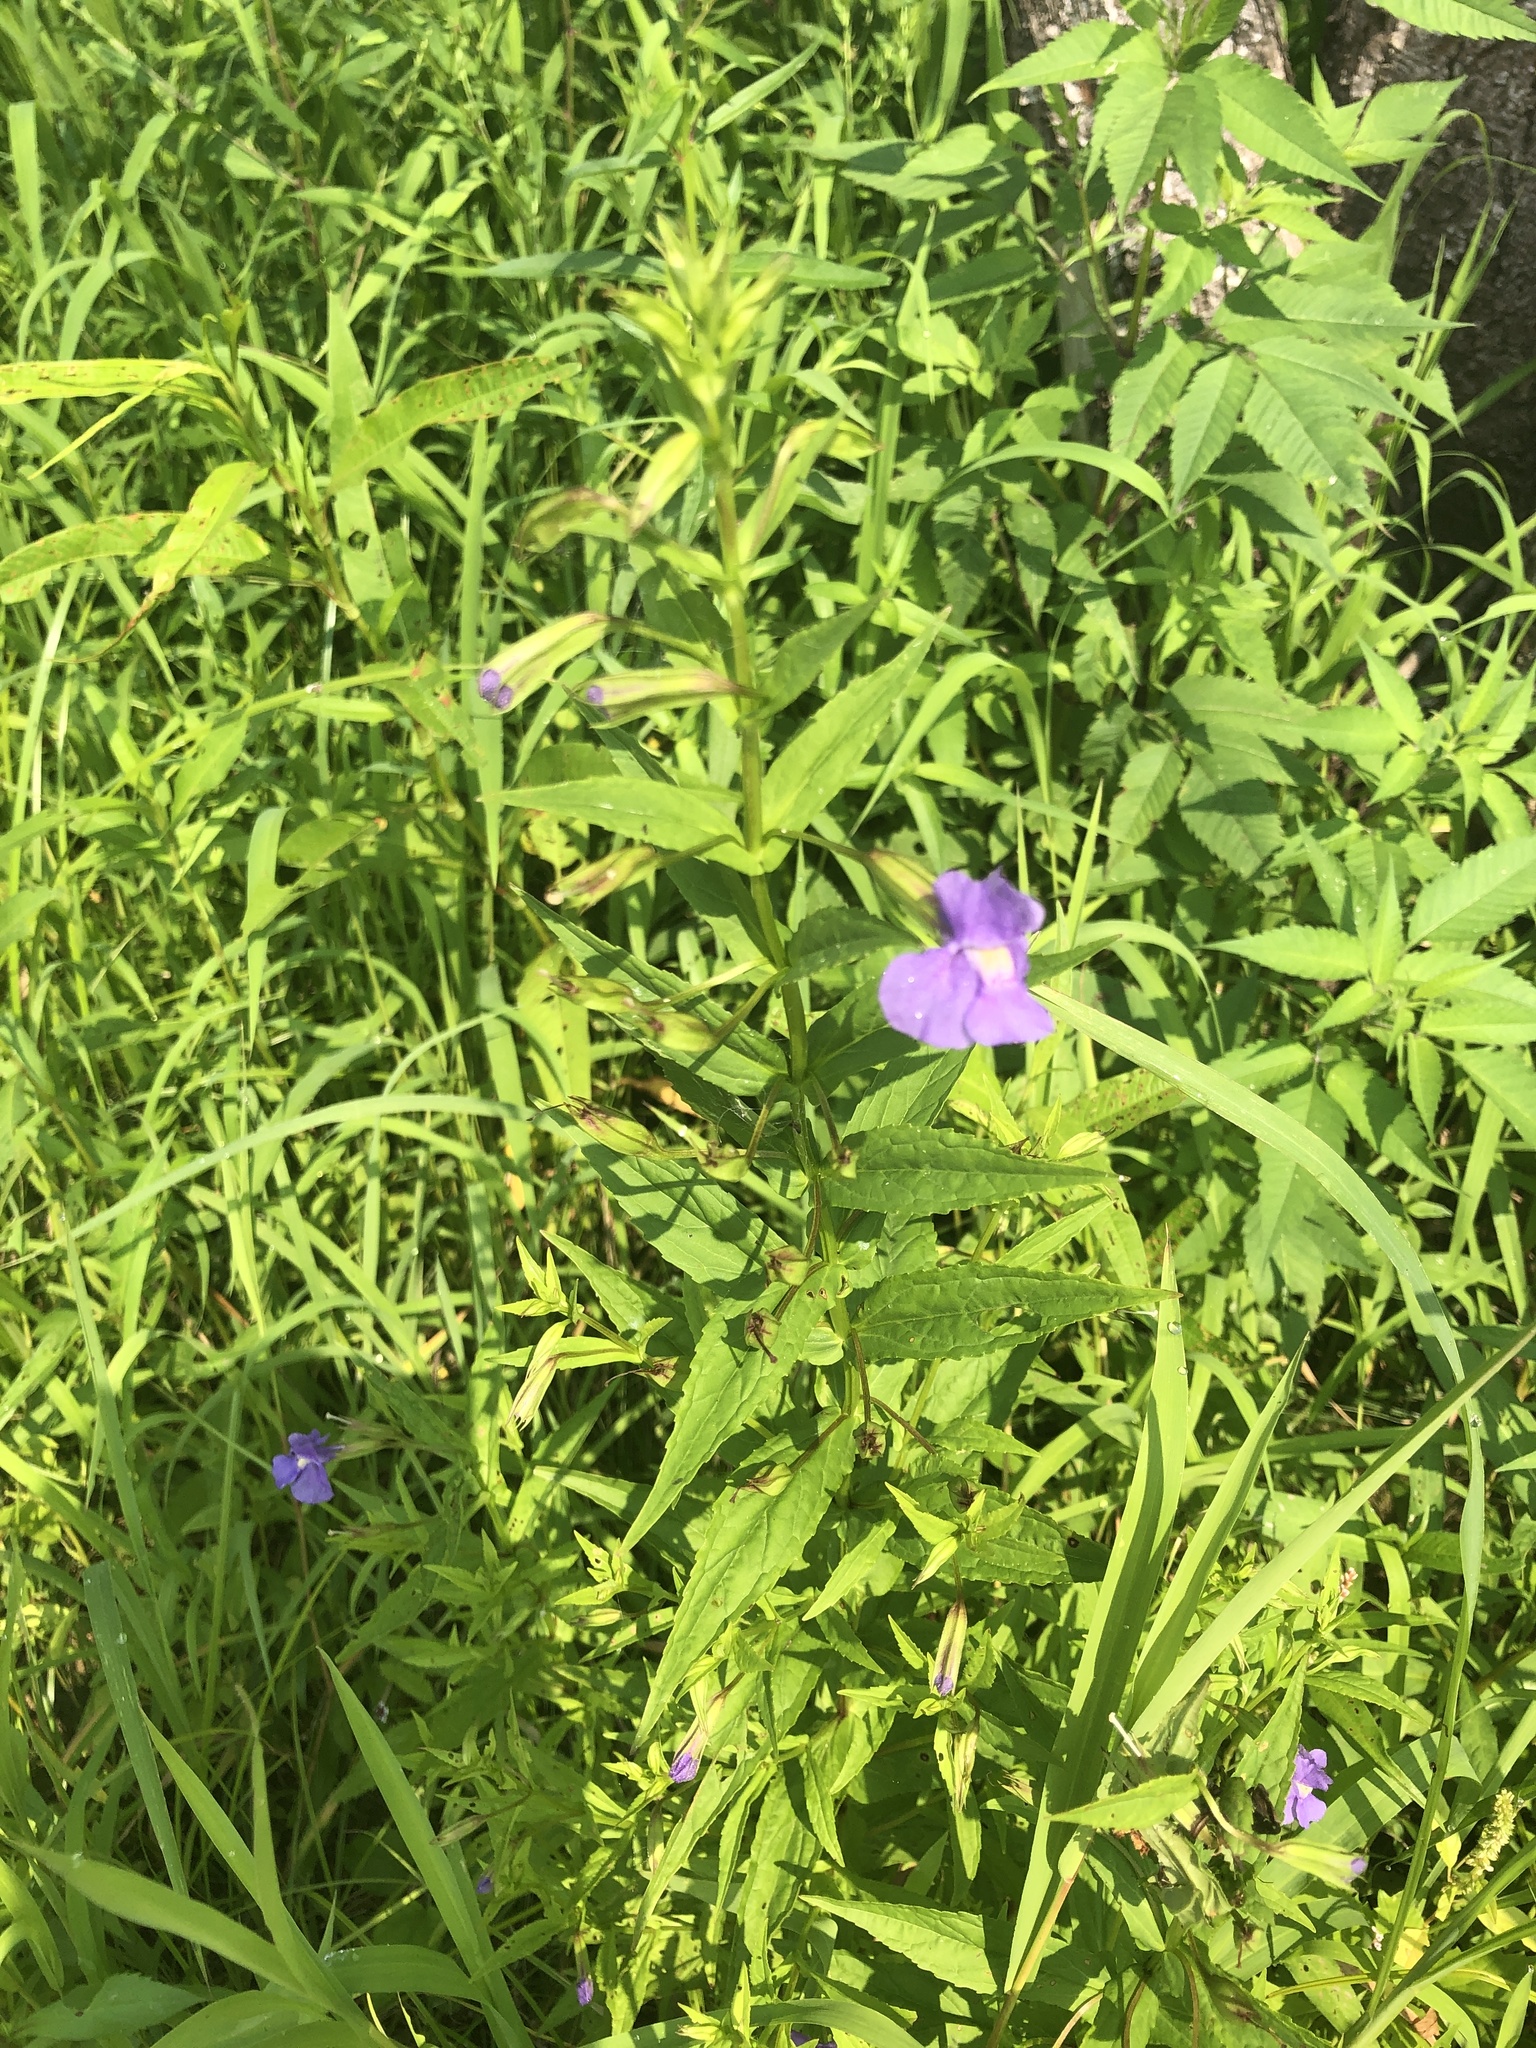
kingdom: Plantae
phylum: Tracheophyta
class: Magnoliopsida
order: Lamiales
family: Phrymaceae
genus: Mimulus
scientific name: Mimulus ringens
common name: Allegheny monkeyflower
